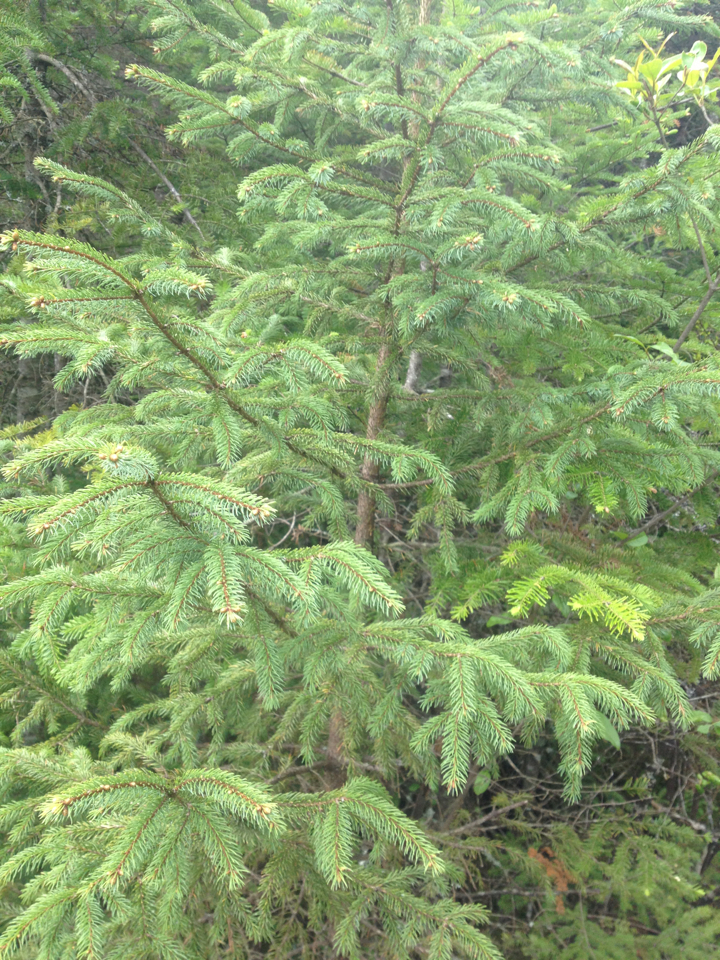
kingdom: Plantae
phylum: Tracheophyta
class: Pinopsida
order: Pinales
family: Pinaceae
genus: Picea
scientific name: Picea rubens
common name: Red spruce
